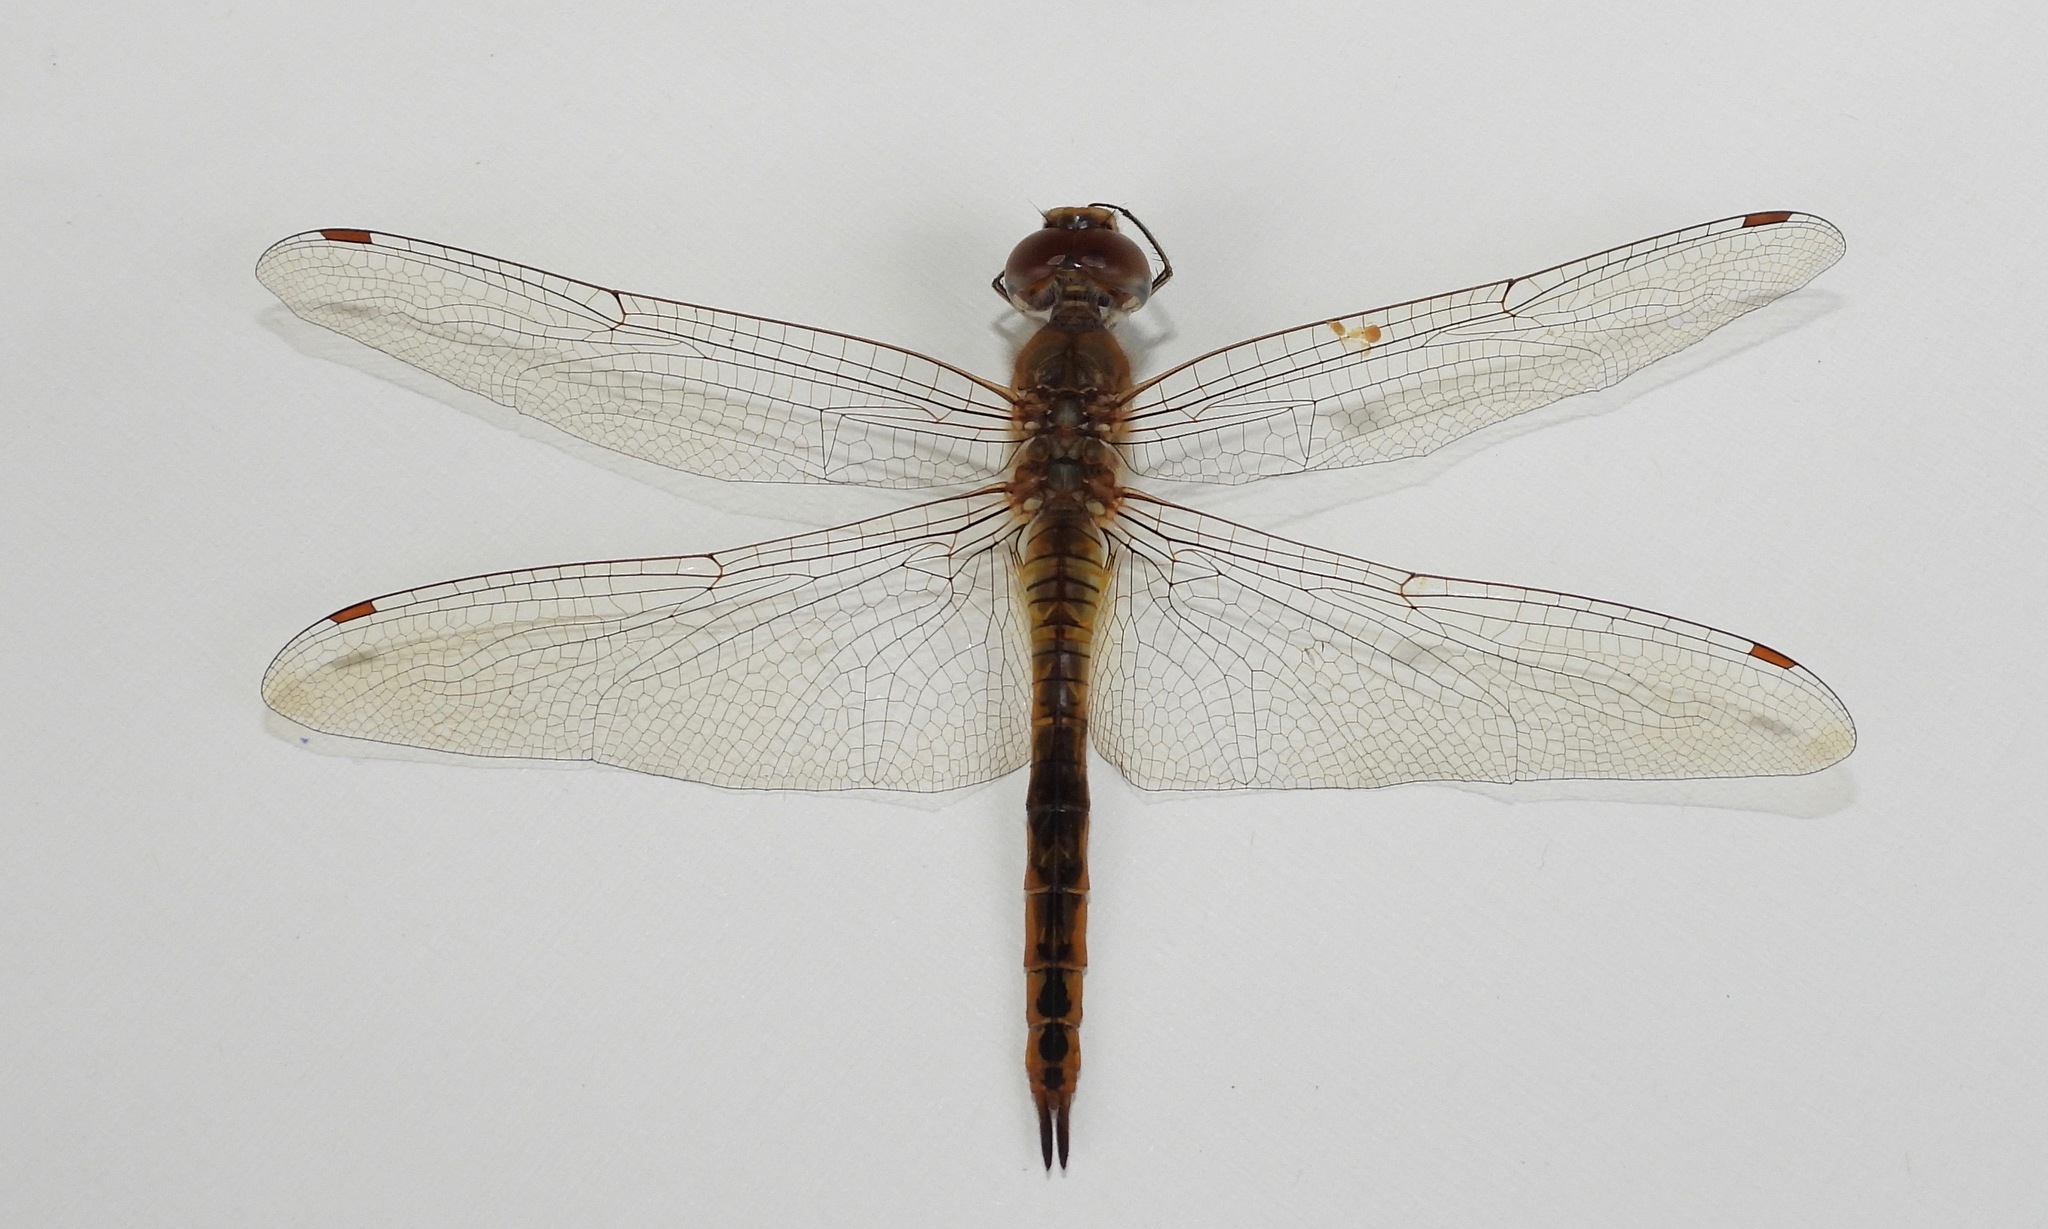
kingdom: Animalia
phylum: Arthropoda
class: Insecta
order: Odonata
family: Libellulidae
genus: Pantala
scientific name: Pantala flavescens
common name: Wandering glider
